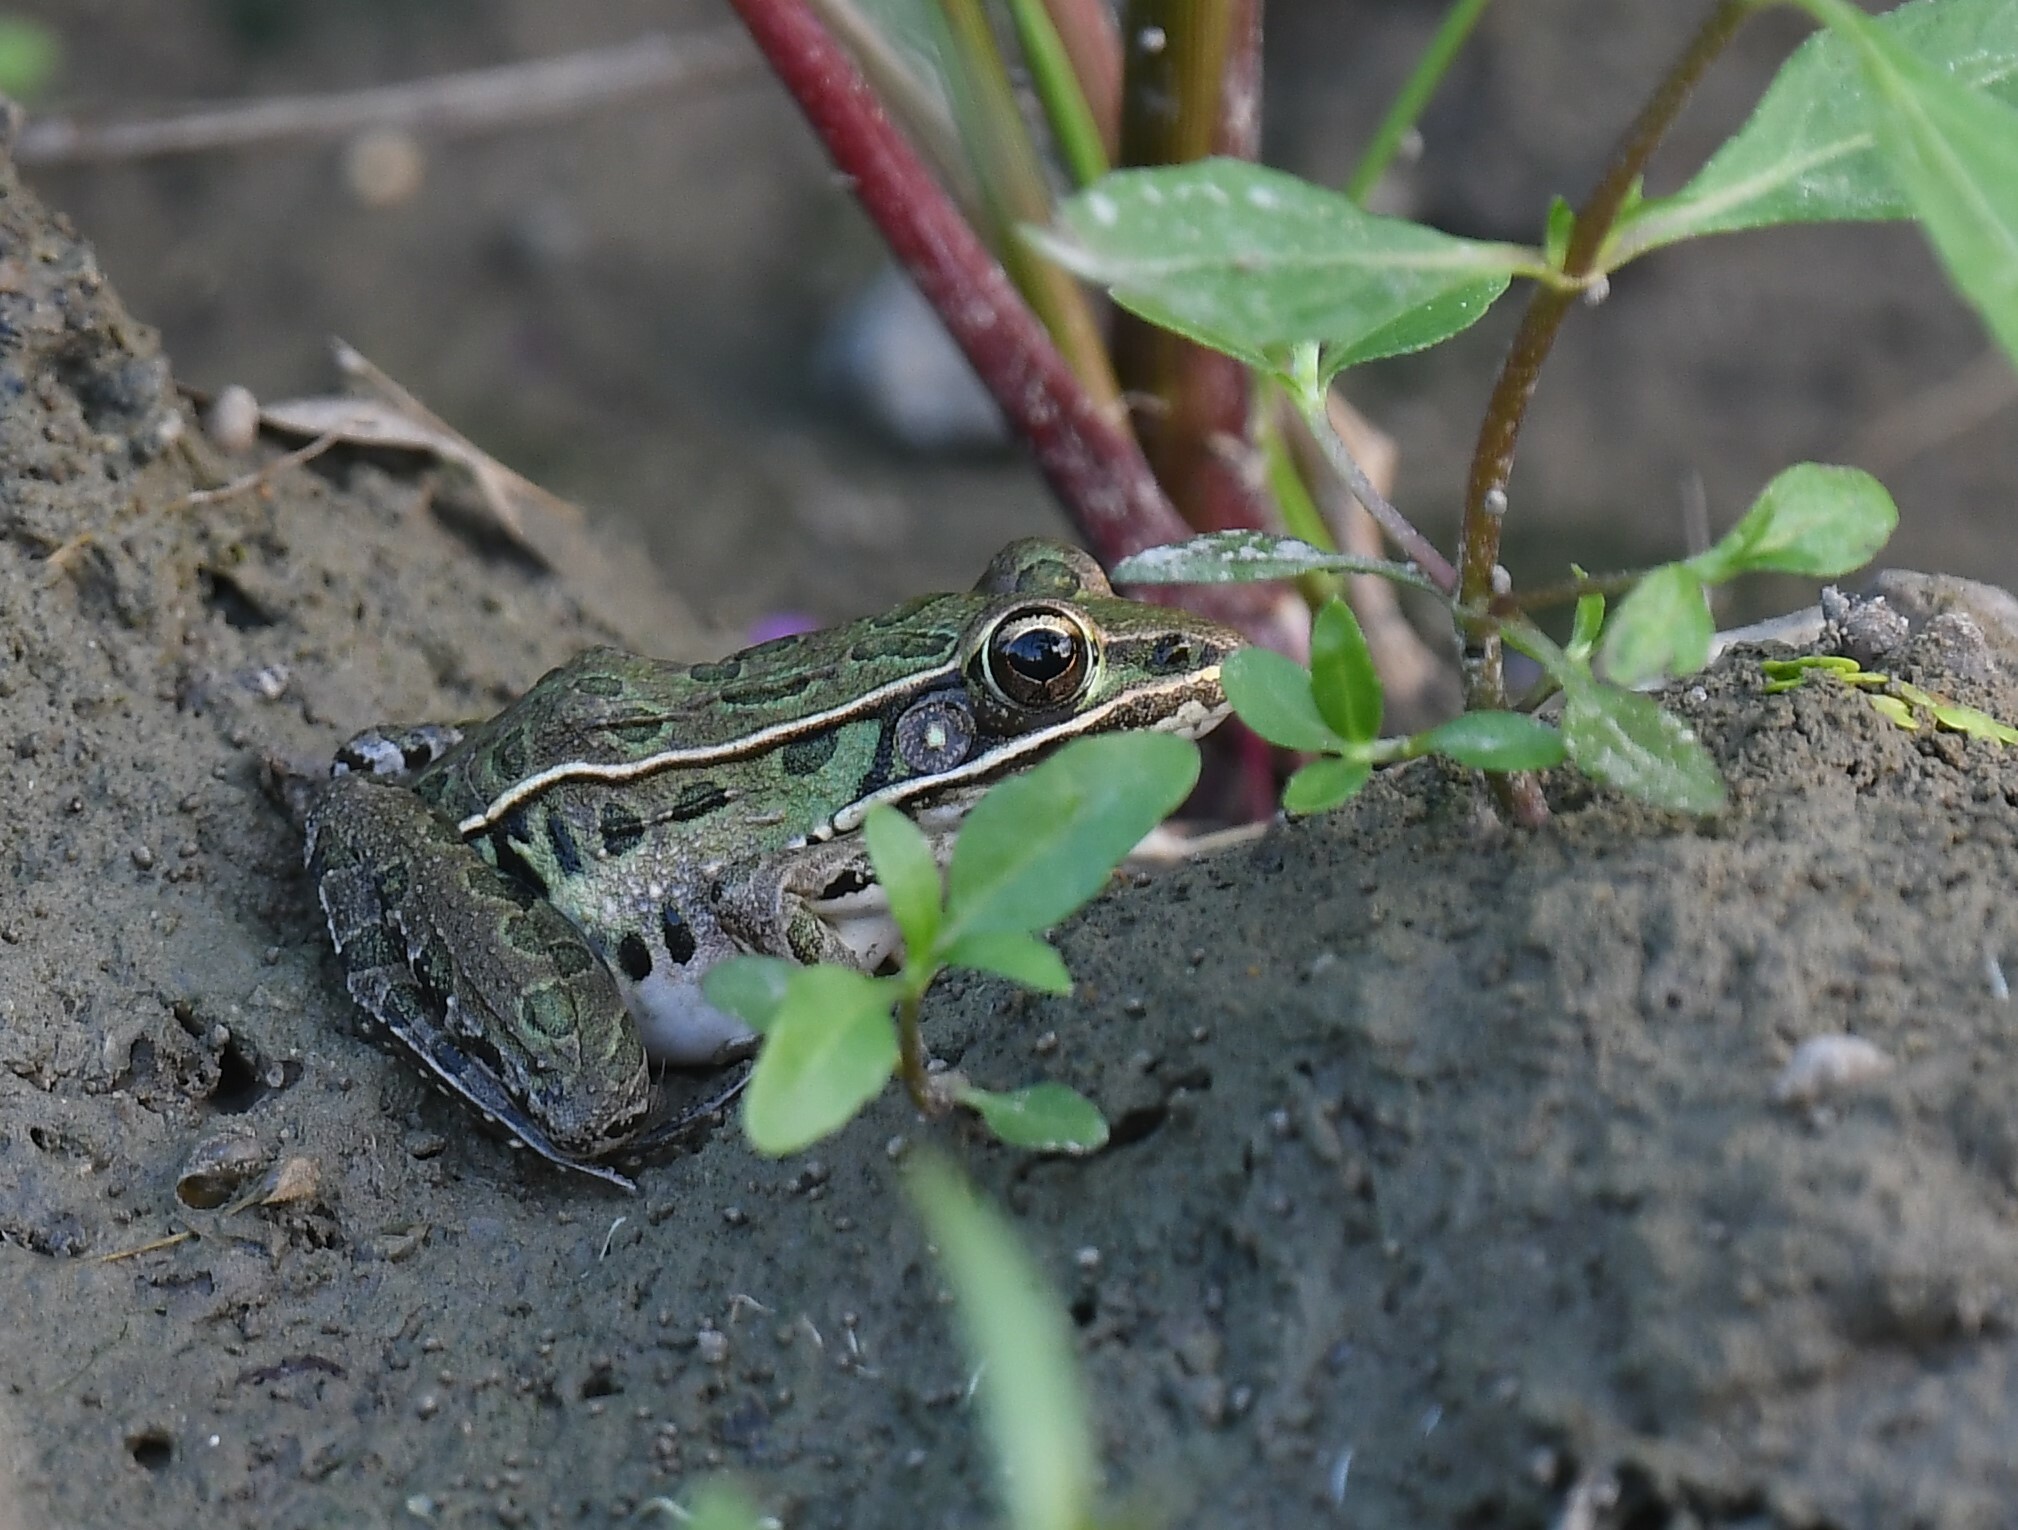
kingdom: Animalia
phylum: Chordata
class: Amphibia
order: Anura
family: Ranidae
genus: Lithobates
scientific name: Lithobates sphenocephalus
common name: Southern leopard frog
